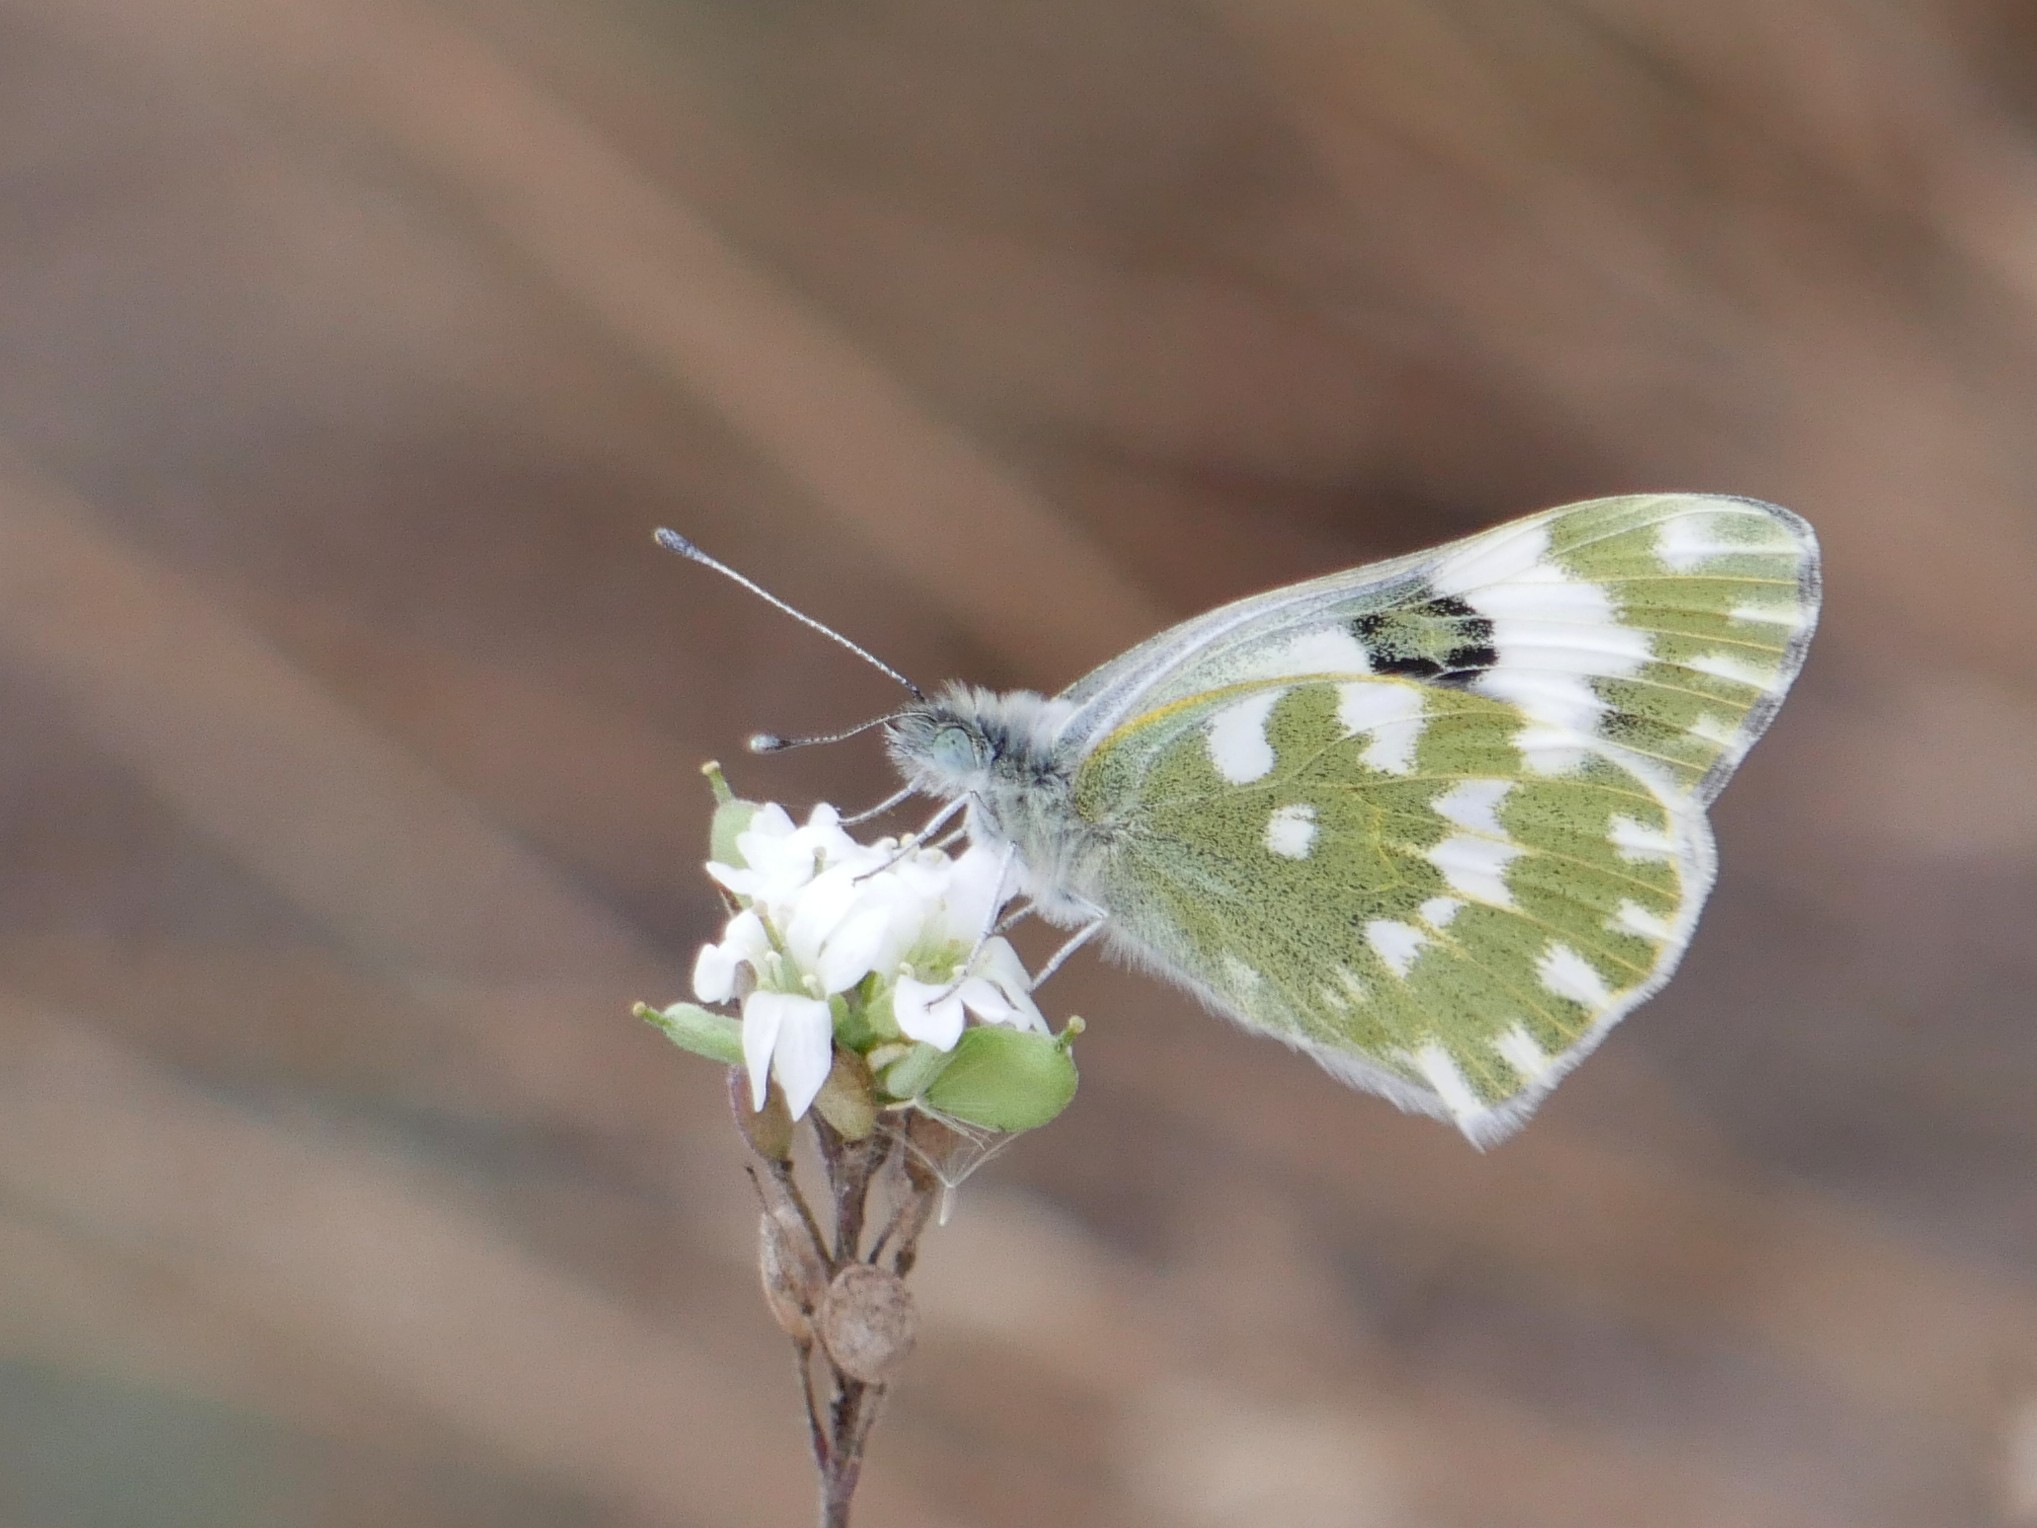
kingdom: Animalia
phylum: Arthropoda
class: Insecta
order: Lepidoptera
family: Pieridae
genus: Pontia
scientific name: Pontia edusa
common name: Eastern bath white
